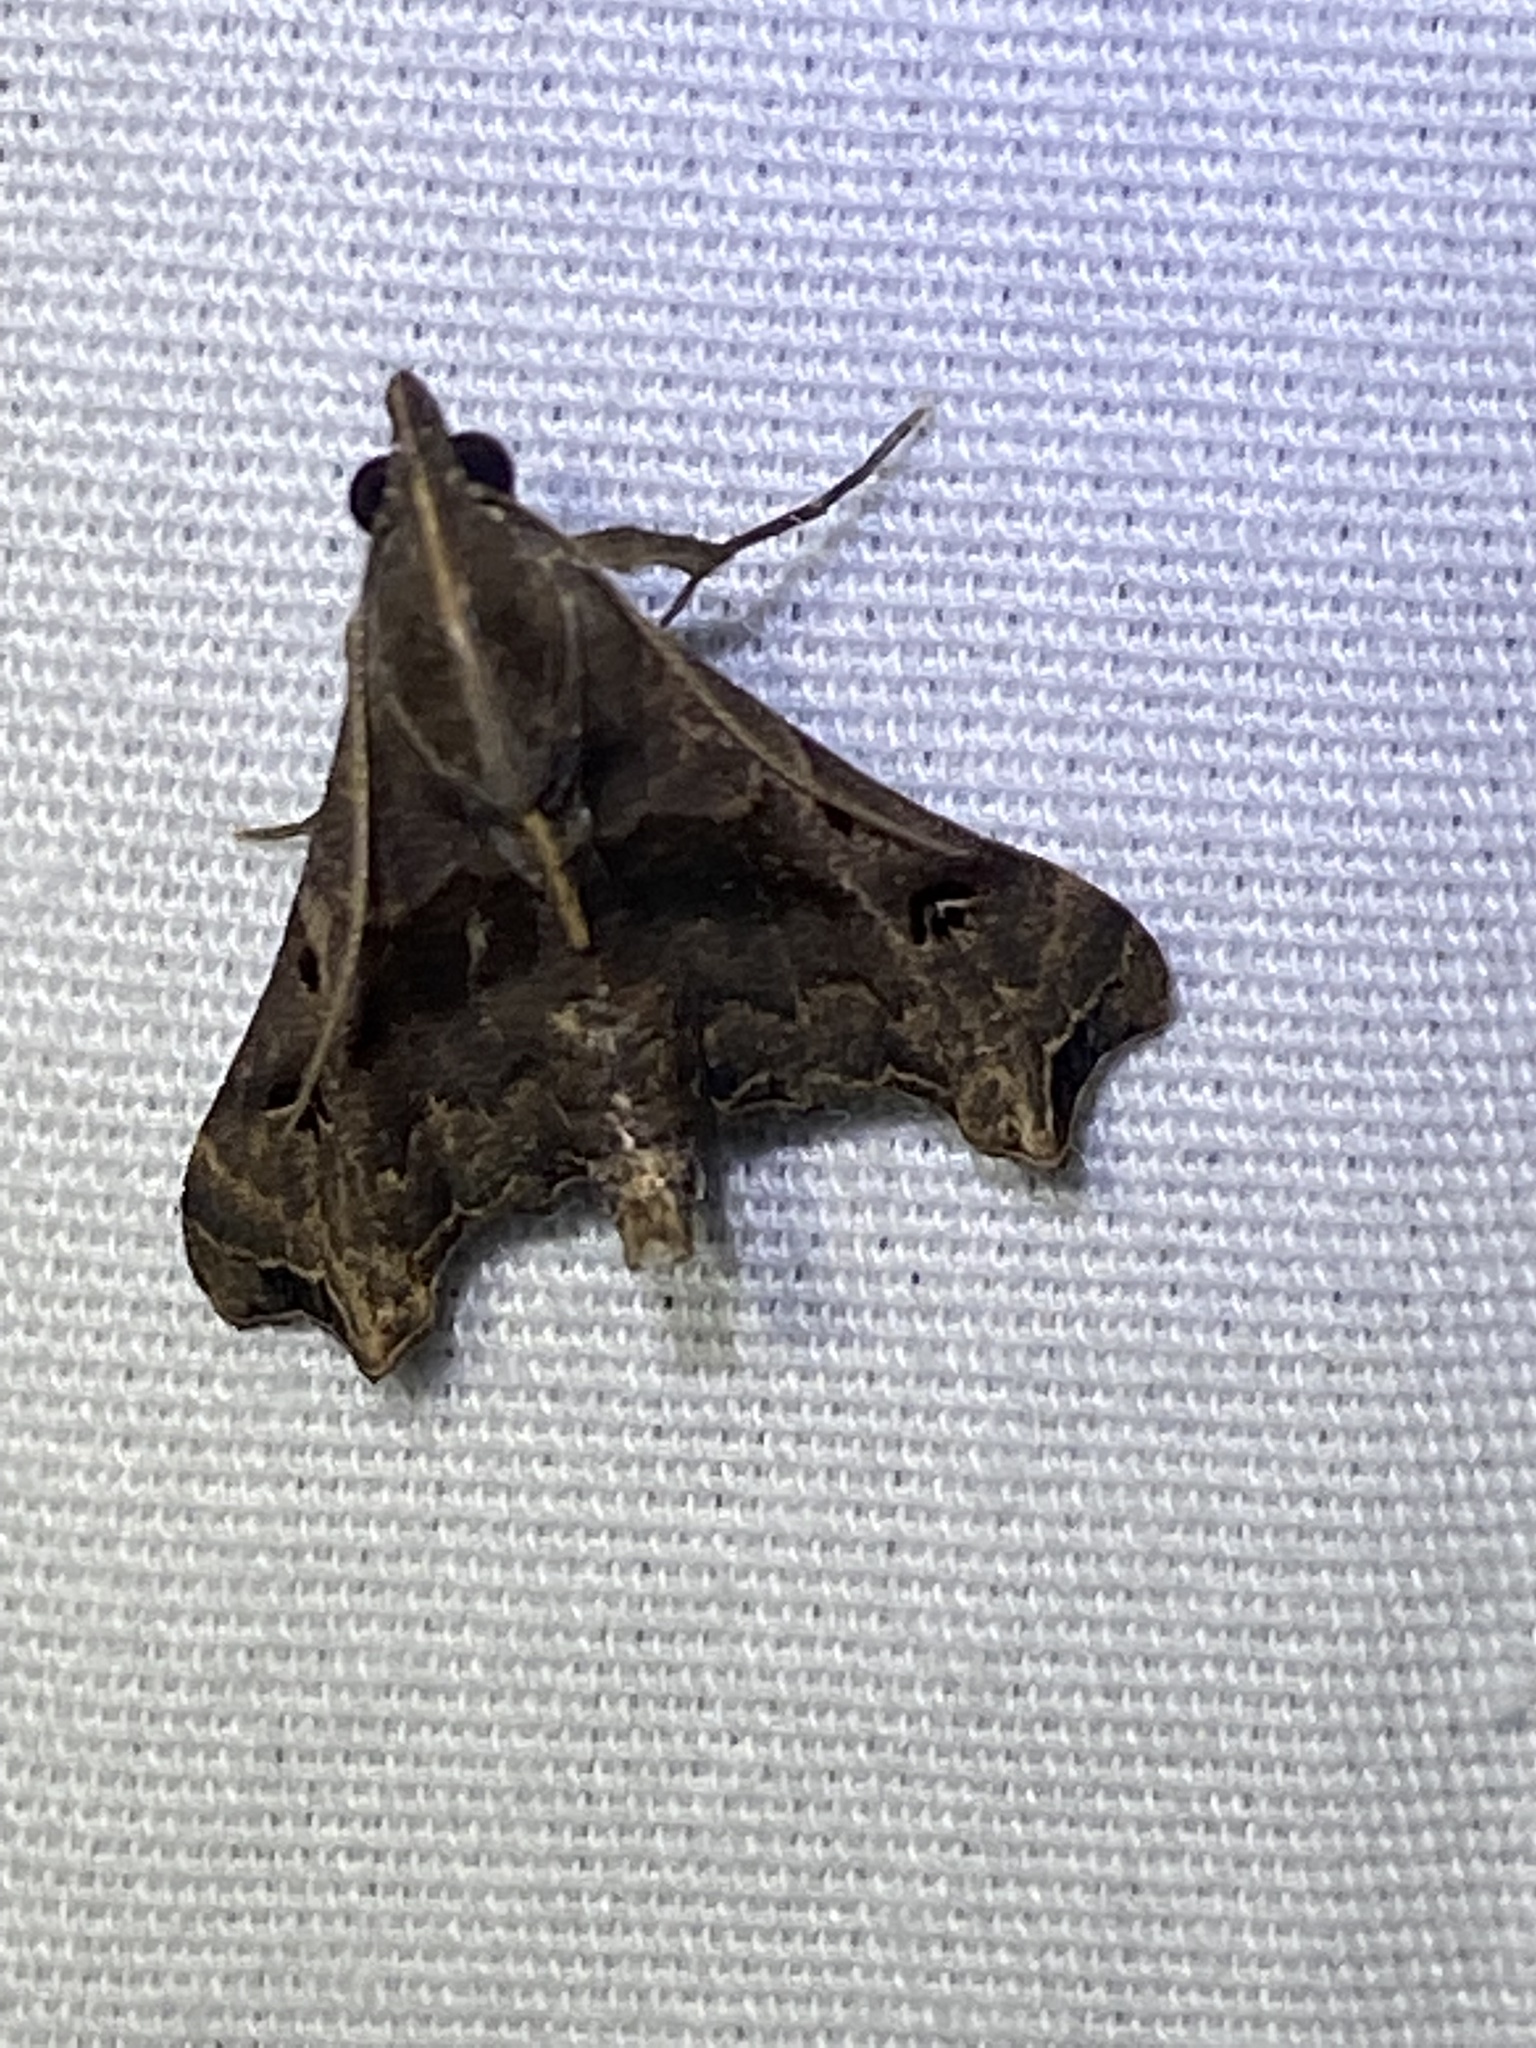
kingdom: Animalia
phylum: Arthropoda
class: Insecta
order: Lepidoptera
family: Erebidae
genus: Palthis
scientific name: Palthis asopialis
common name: Faint-spotted palthis moth
